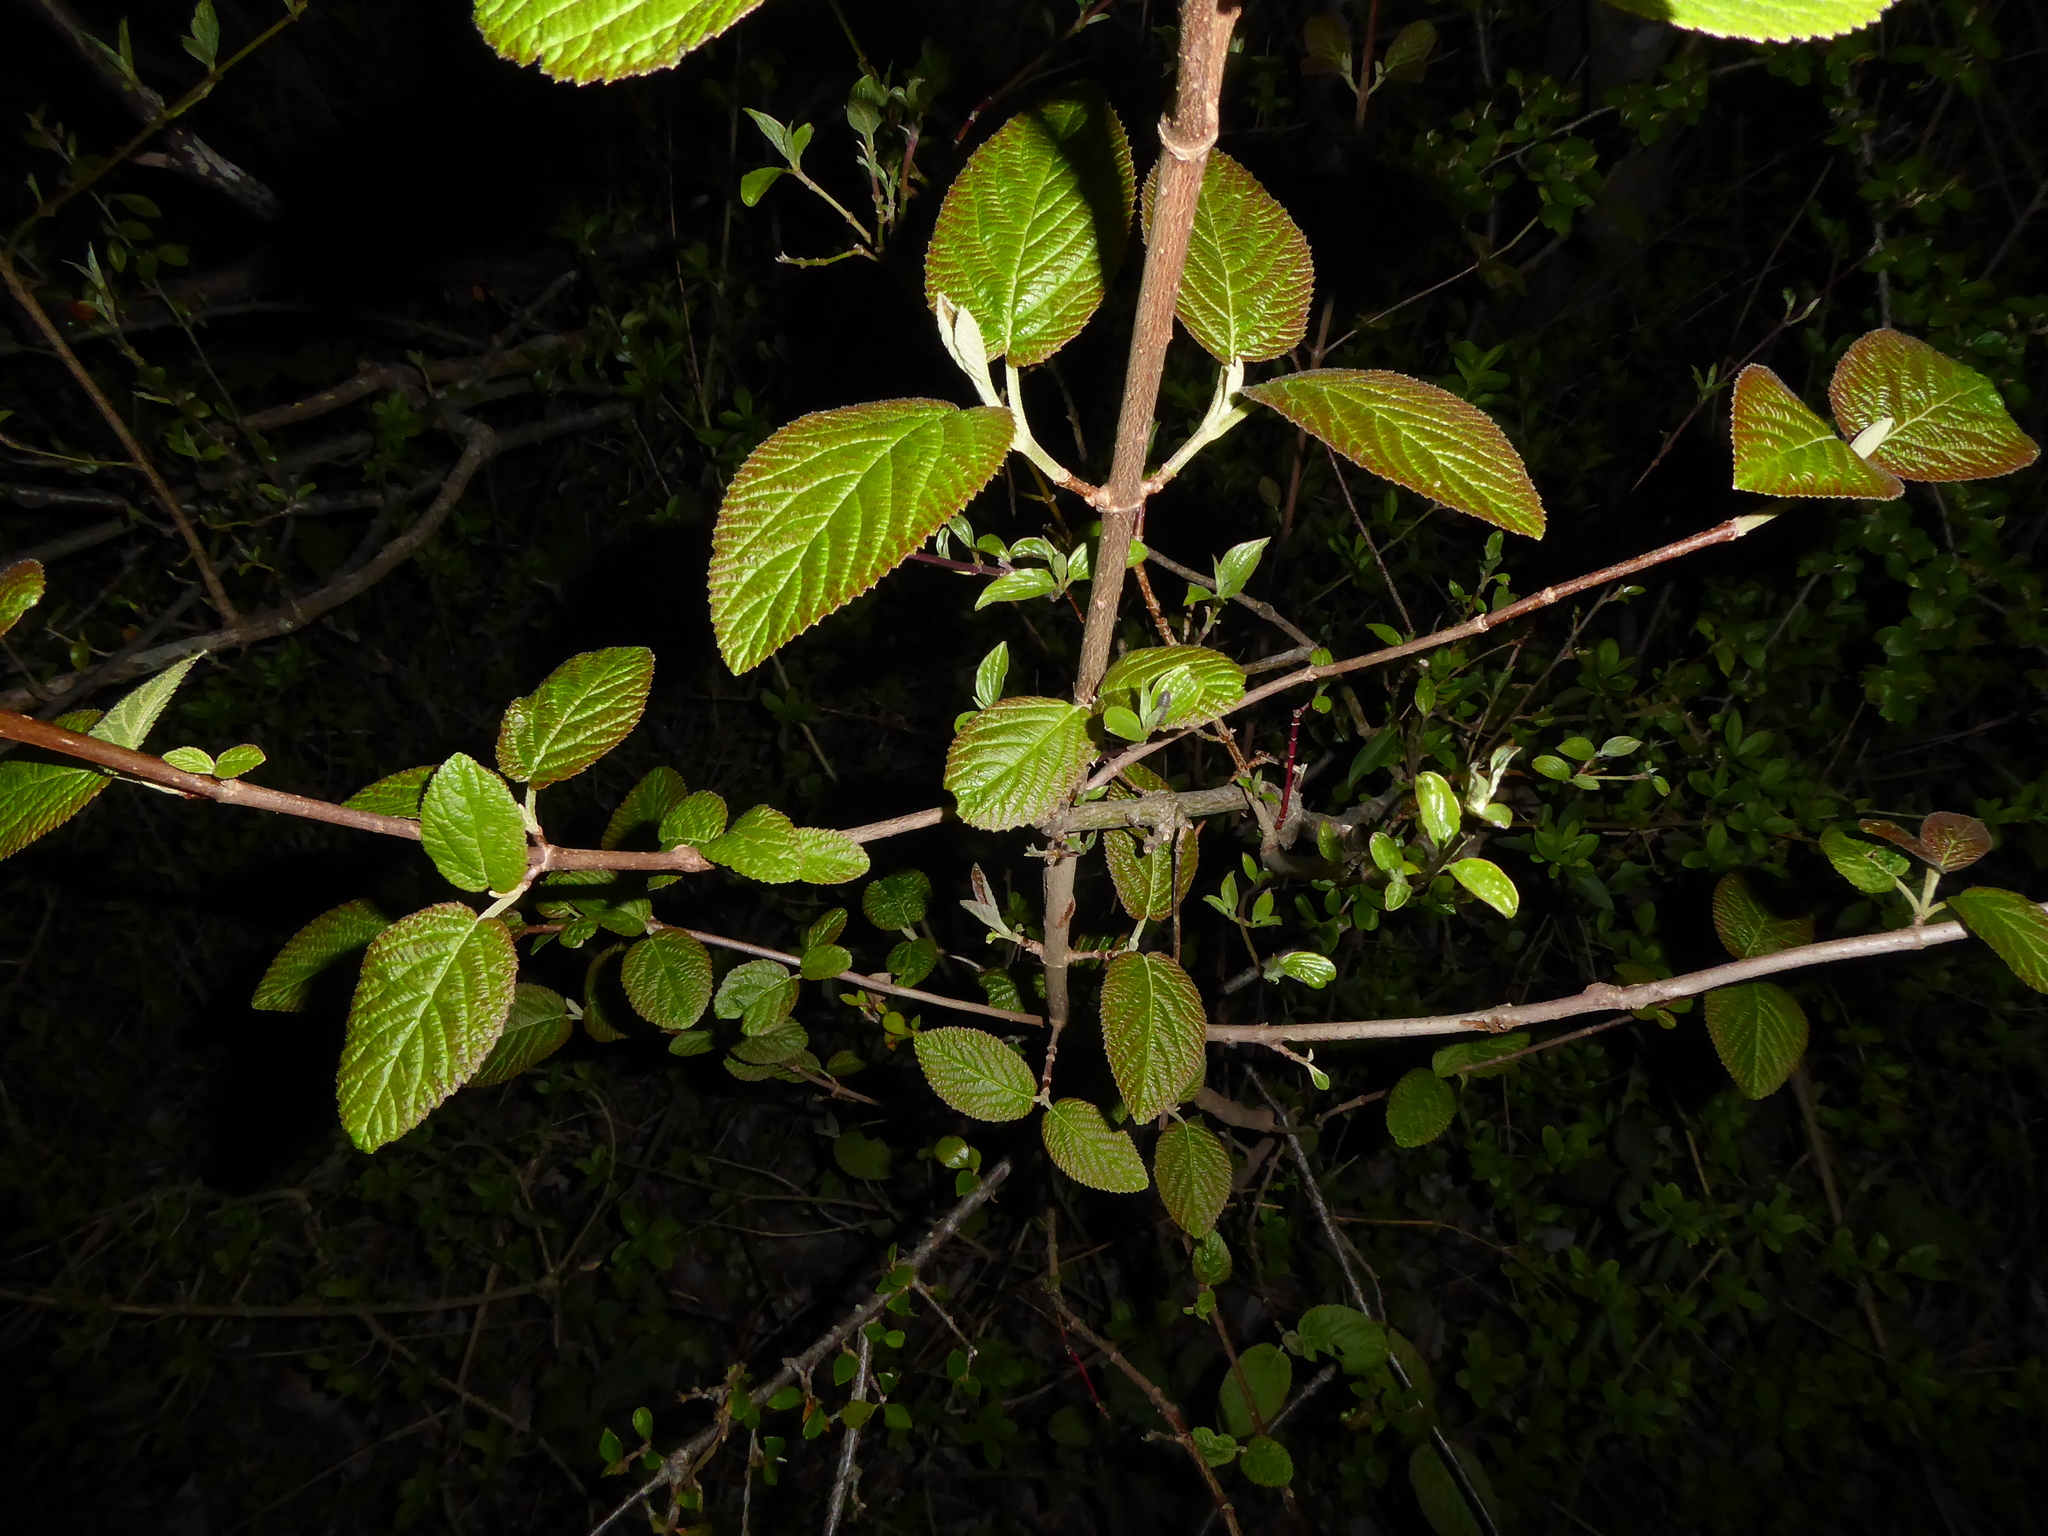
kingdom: Plantae
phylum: Tracheophyta
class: Magnoliopsida
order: Dipsacales
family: Viburnaceae
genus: Viburnum
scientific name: Viburnum lantana
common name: Wayfaring tree
